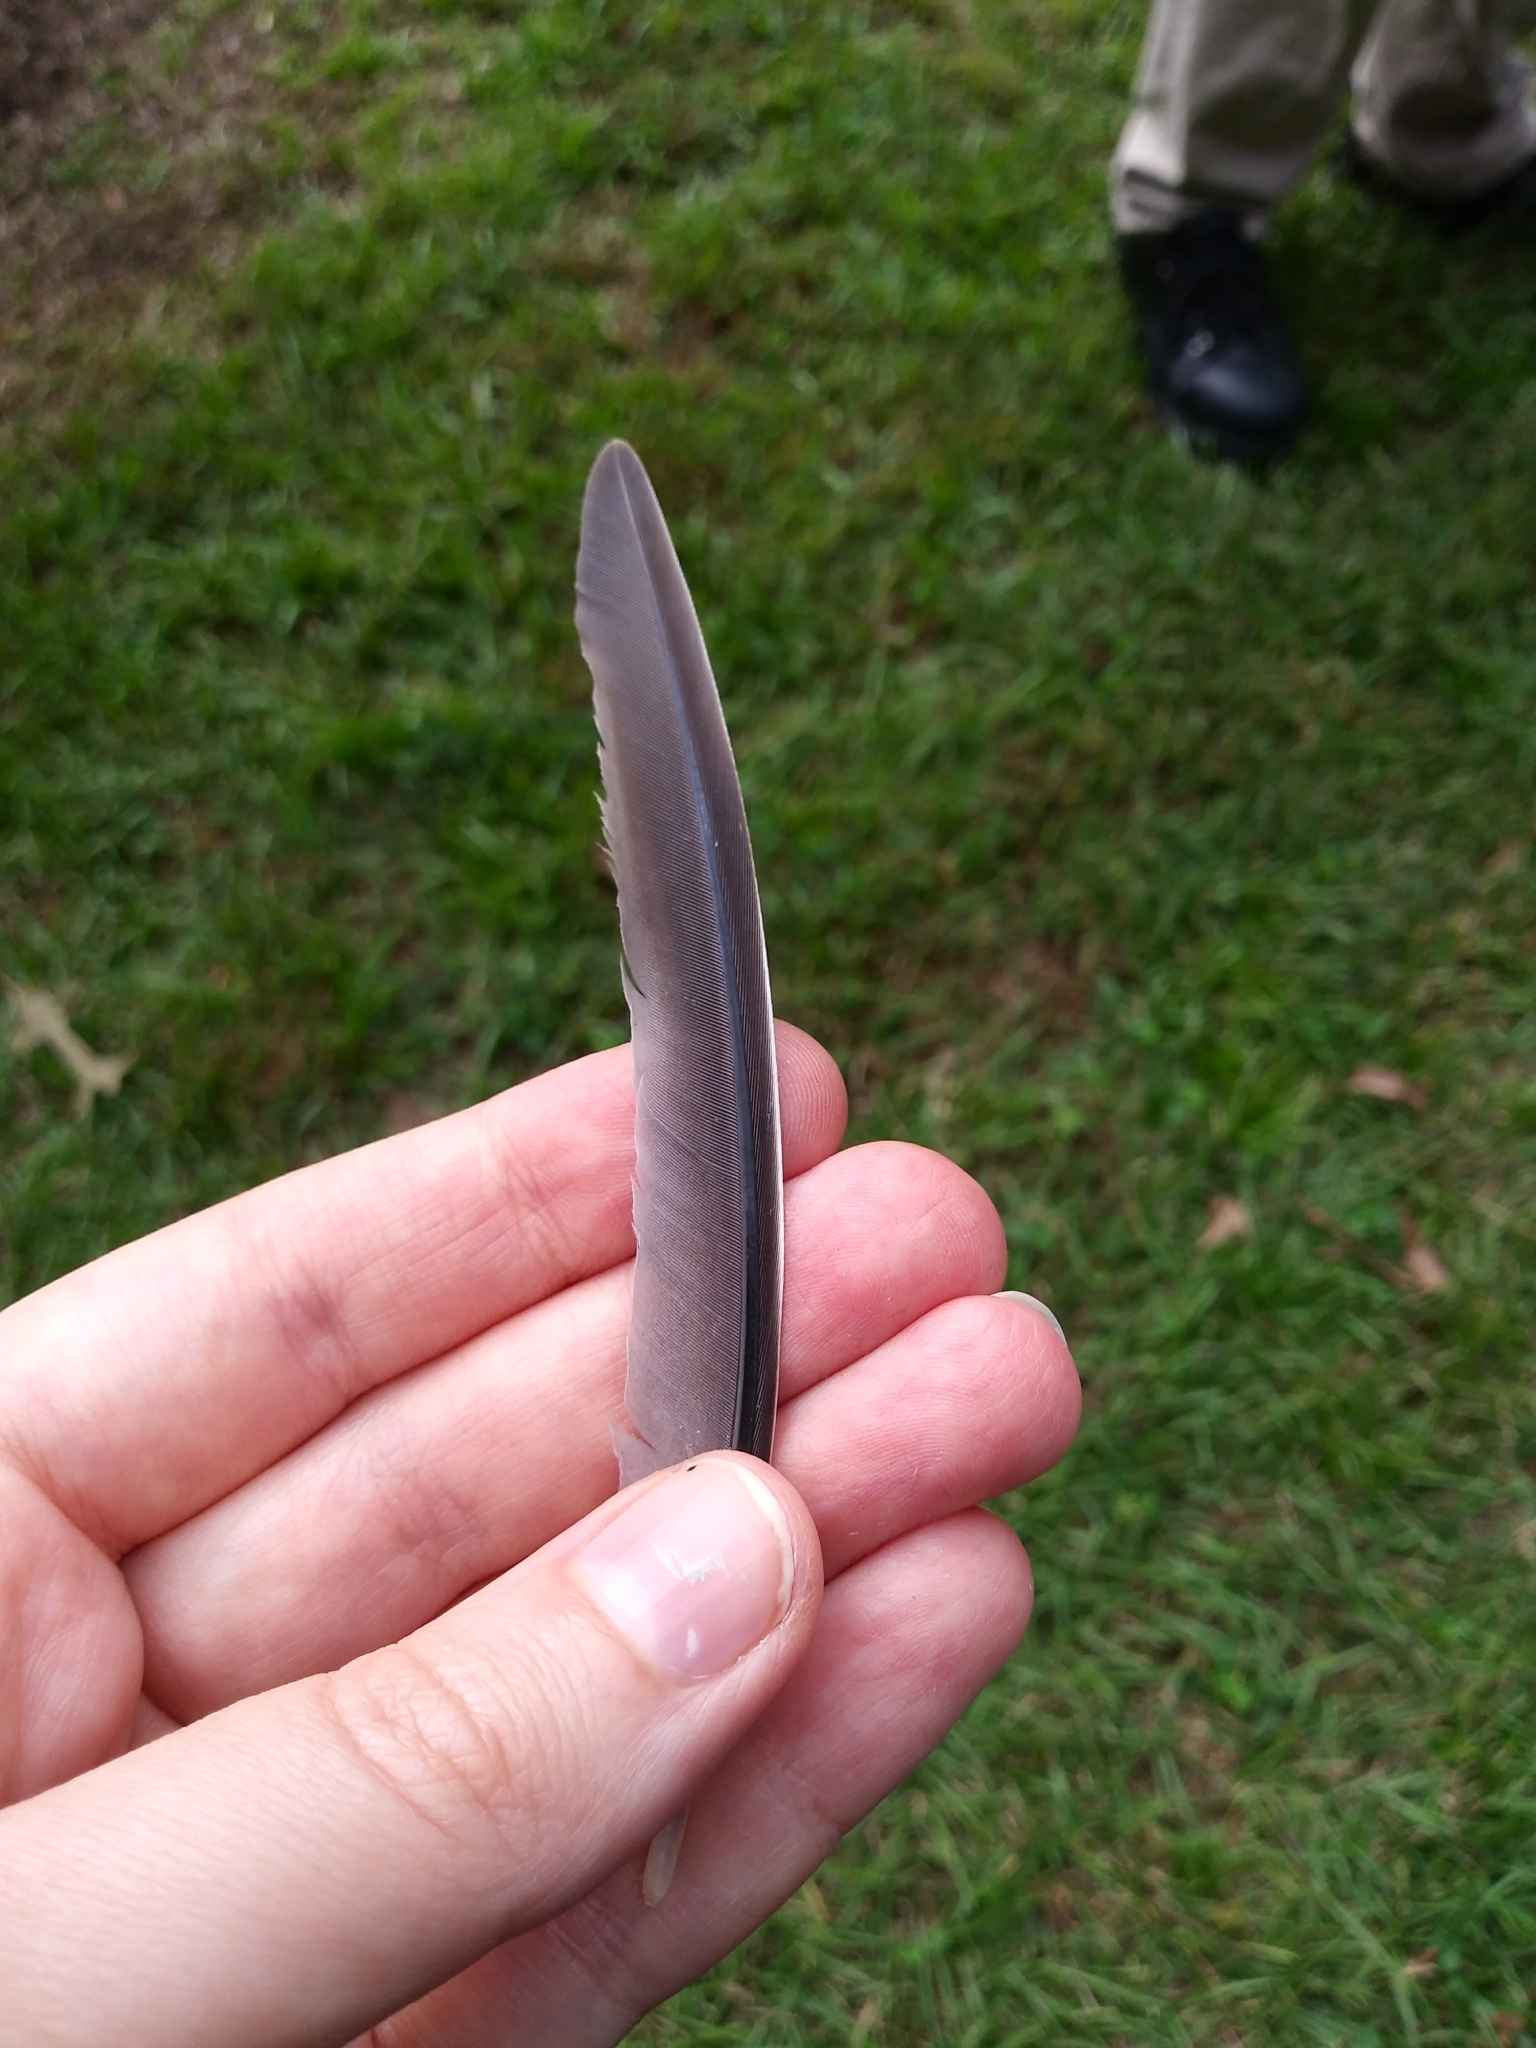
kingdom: Animalia
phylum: Chordata
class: Aves
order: Columbiformes
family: Columbidae
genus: Zenaida
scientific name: Zenaida macroura
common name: Mourning dove
